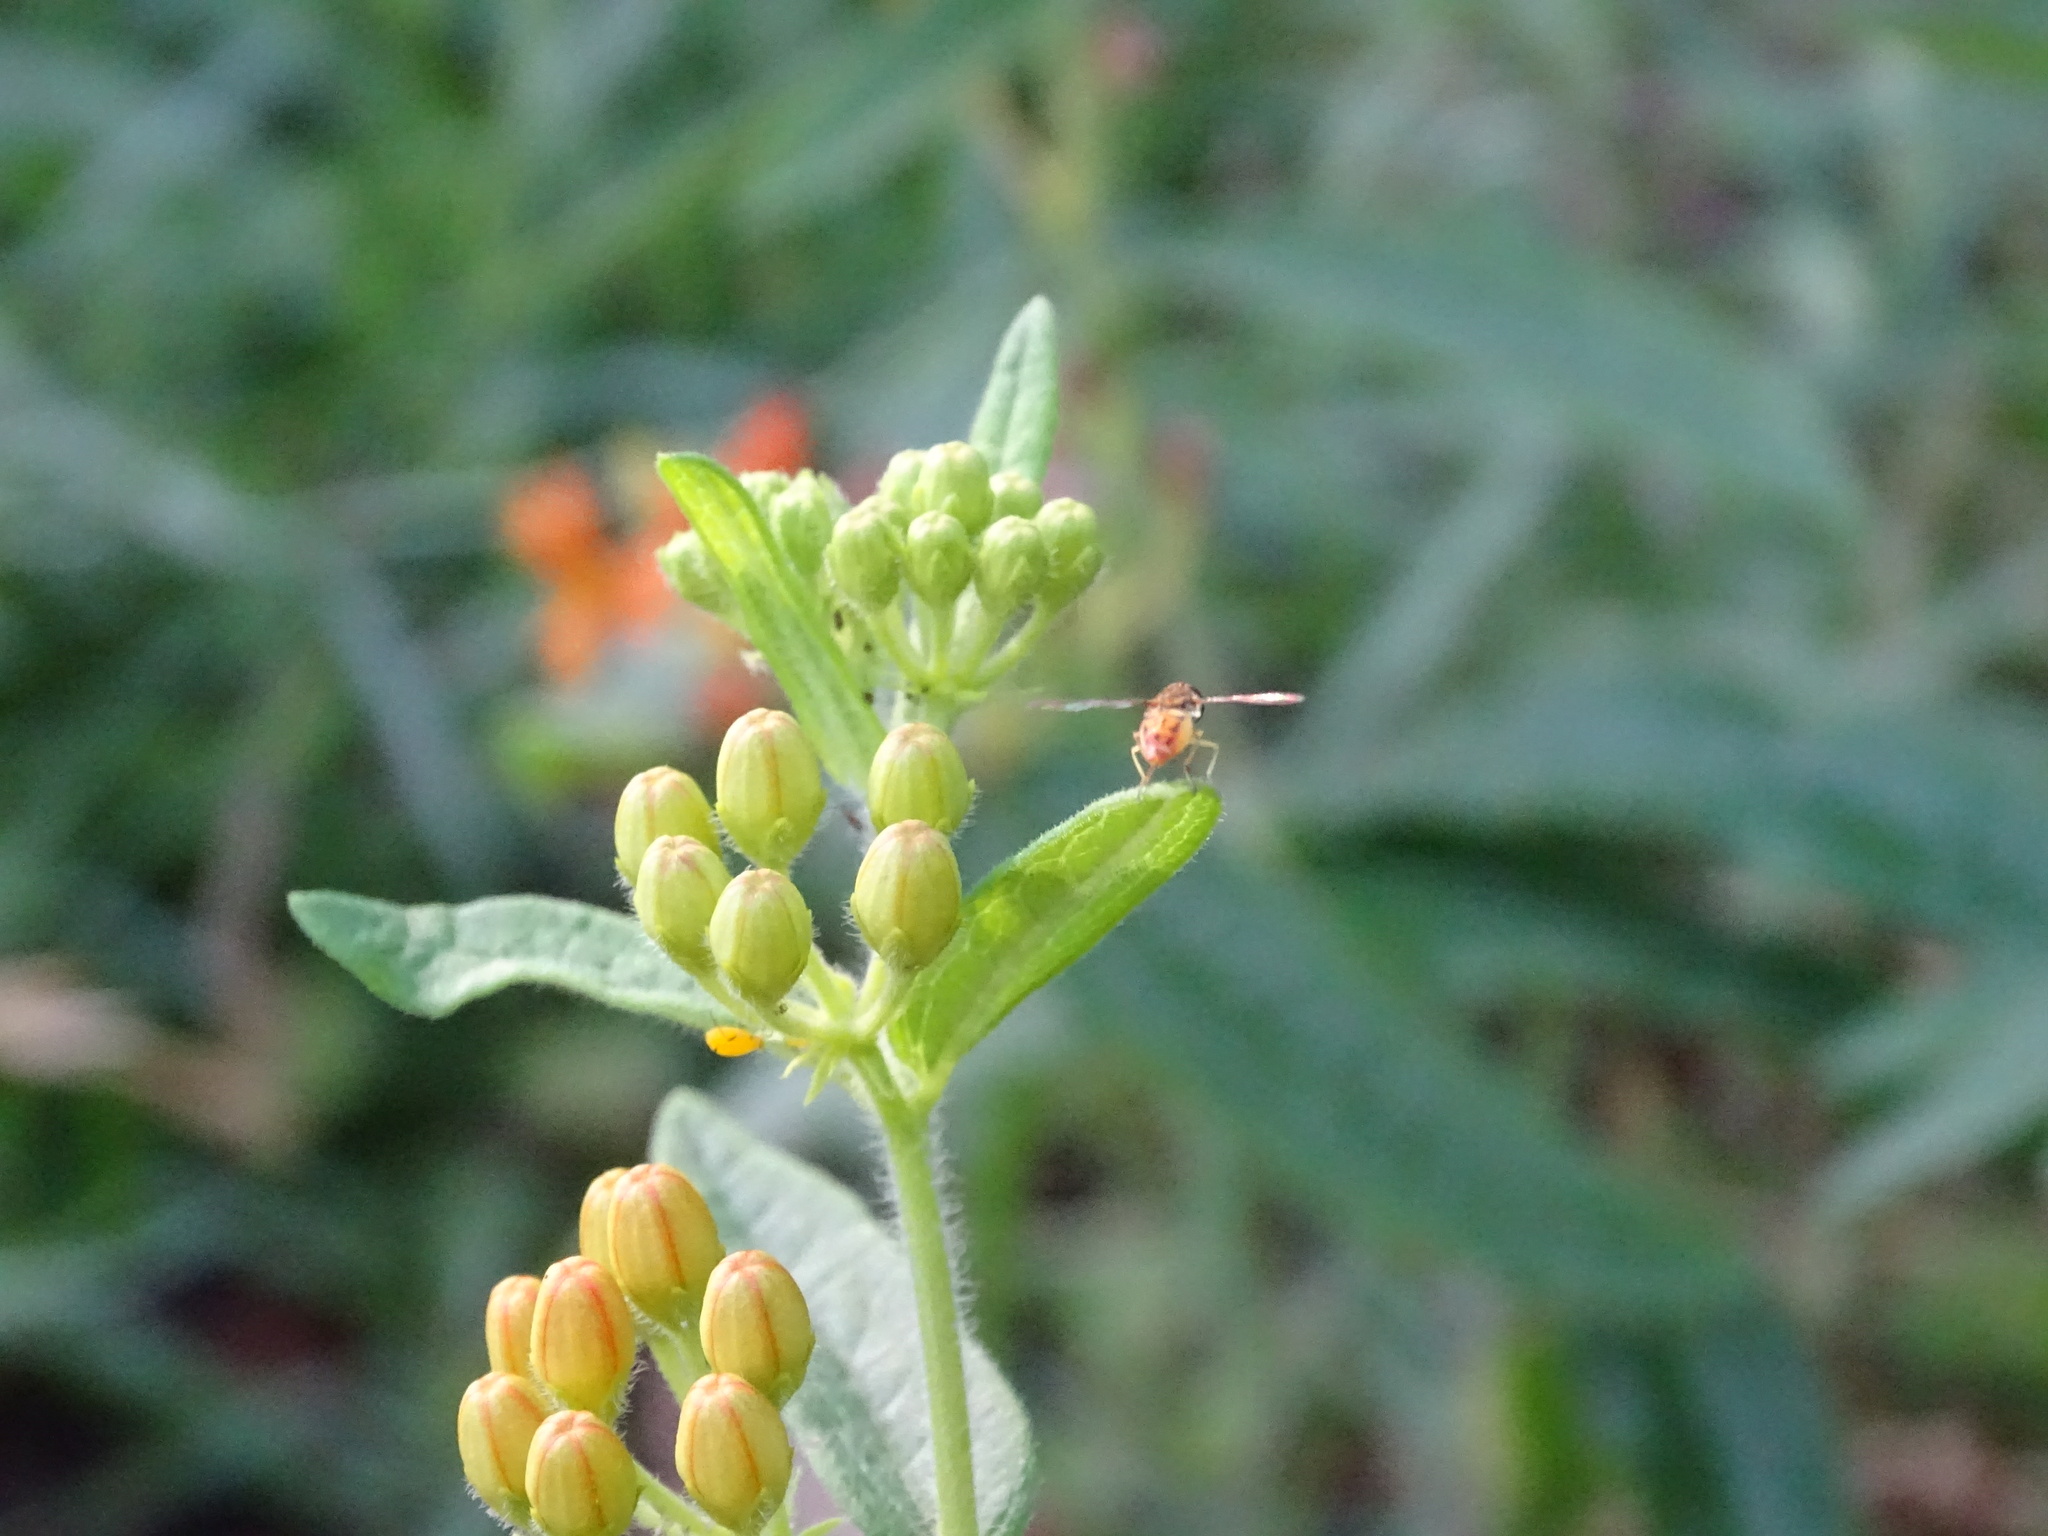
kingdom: Animalia
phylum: Arthropoda
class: Insecta
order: Diptera
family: Syrphidae
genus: Toxomerus
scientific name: Toxomerus marginatus
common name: Syrphid fly
